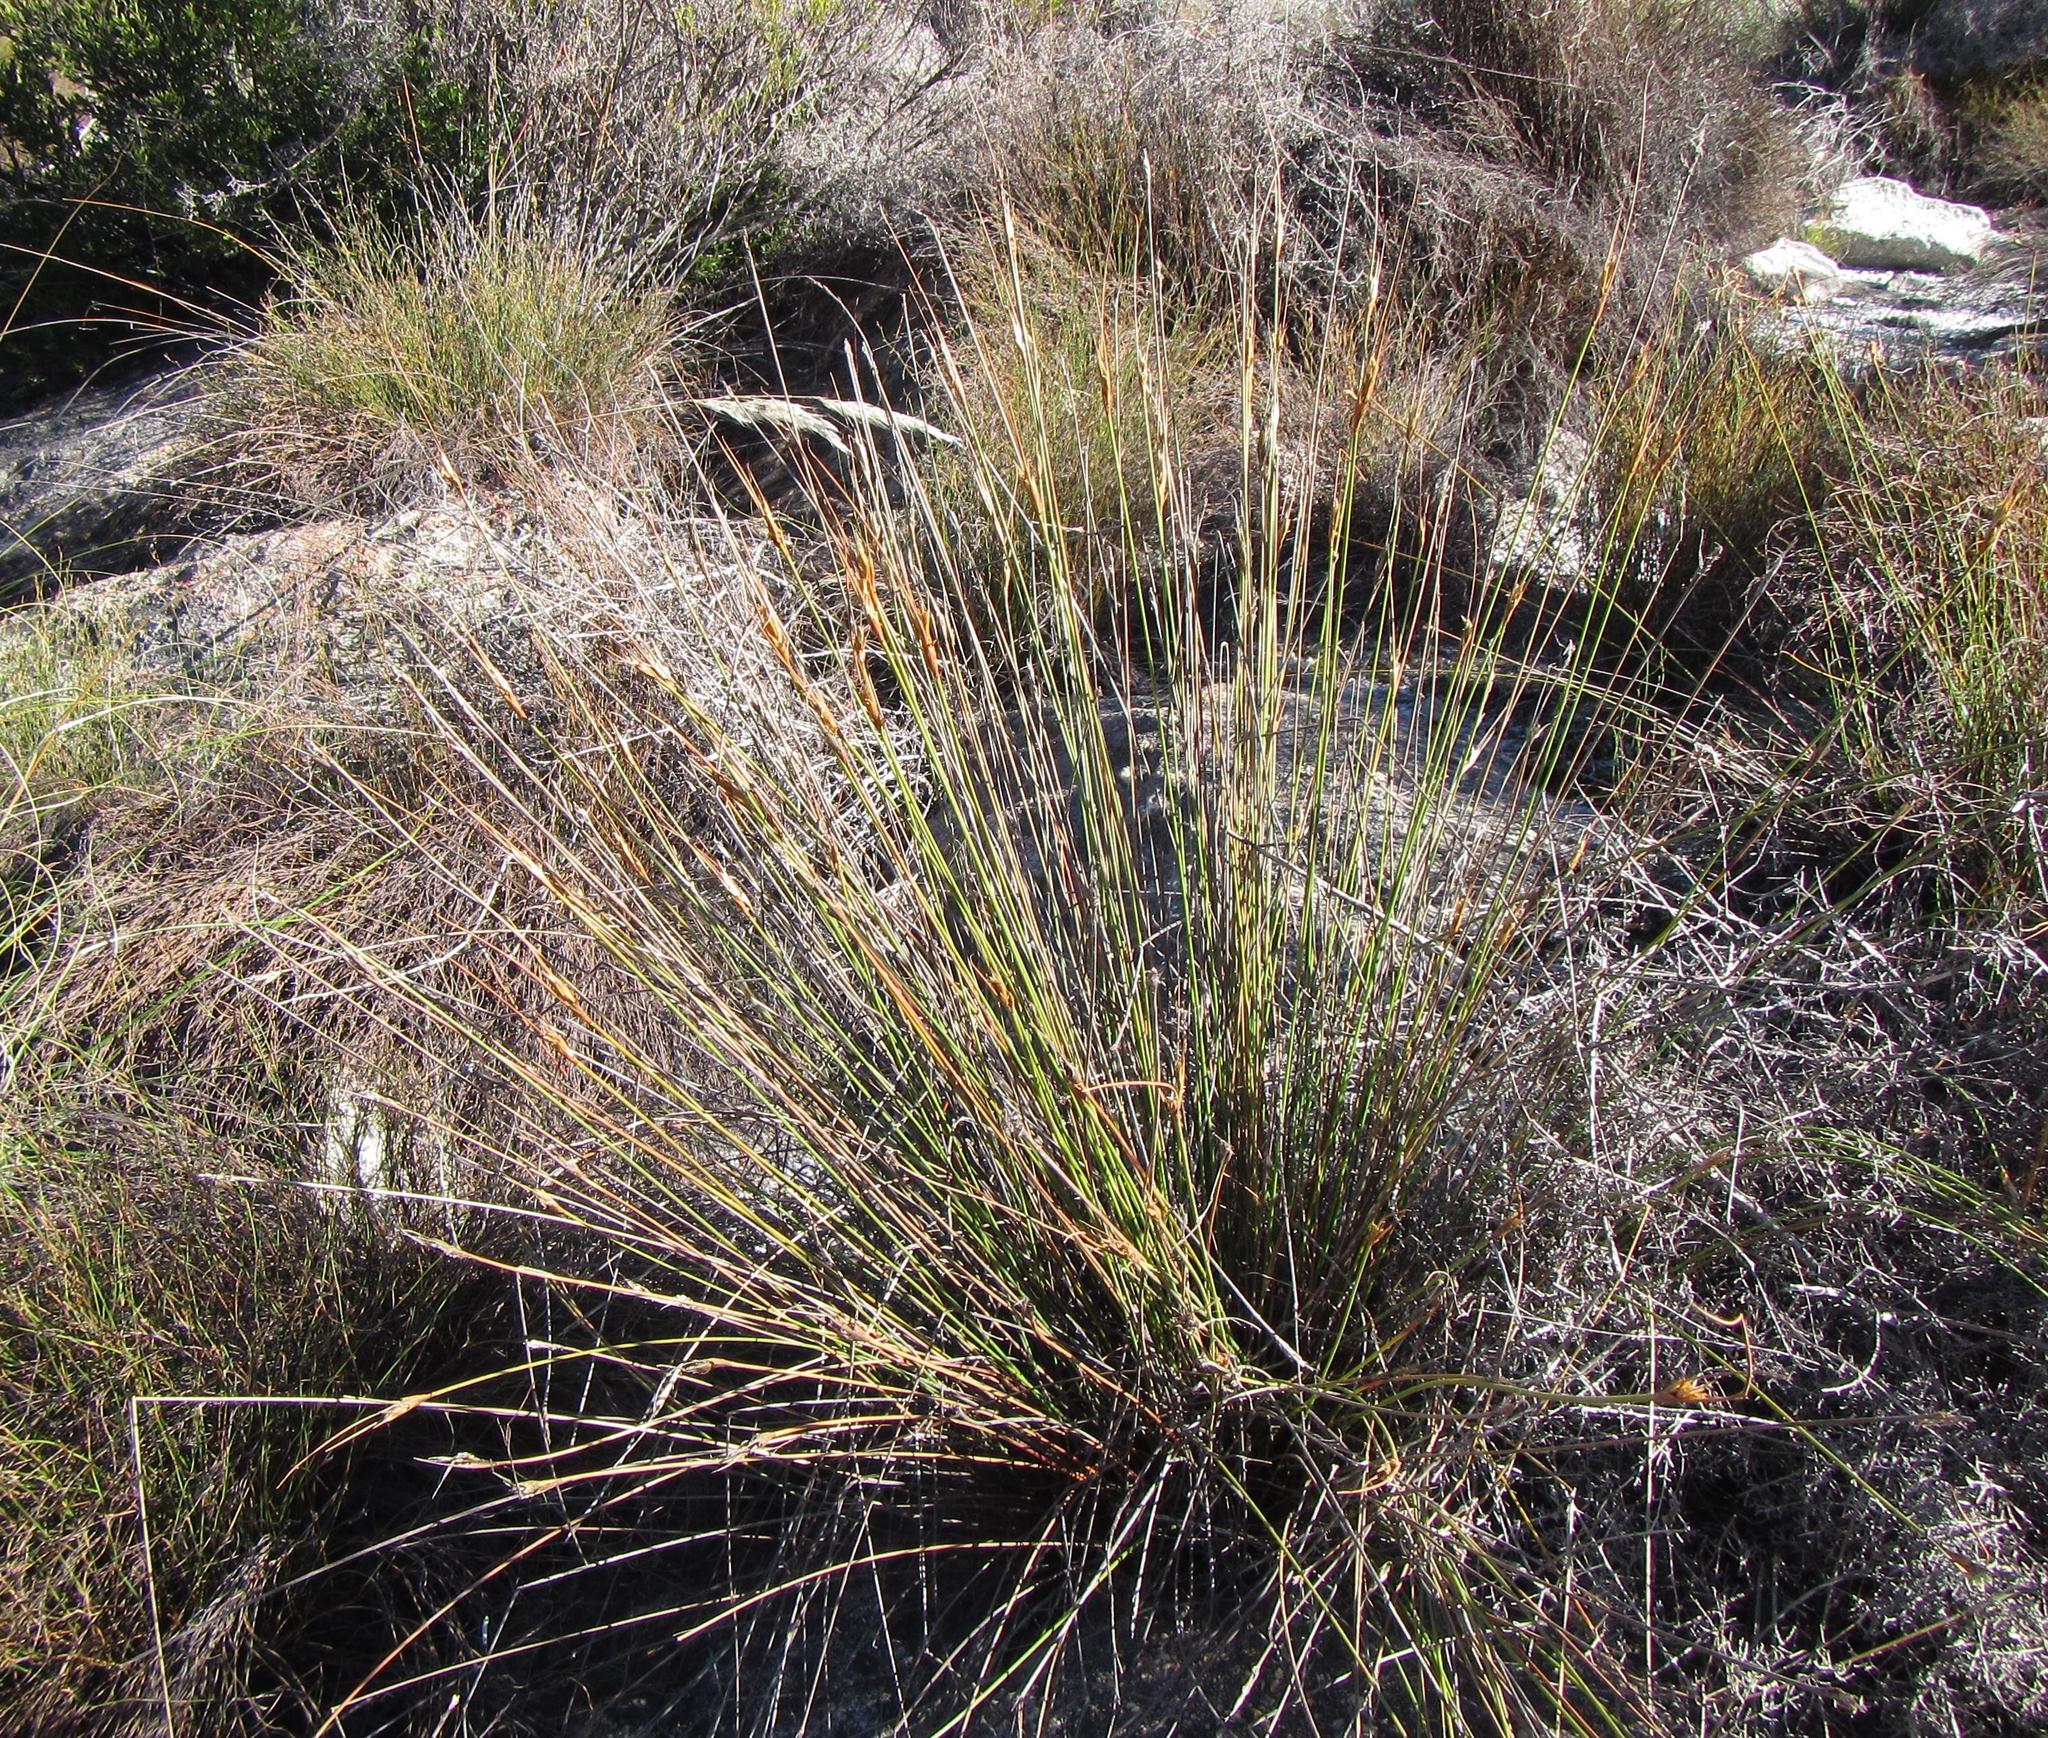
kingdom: Plantae
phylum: Tracheophyta
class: Liliopsida
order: Poales
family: Cyperaceae
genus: Schoenus
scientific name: Schoenus pictus
